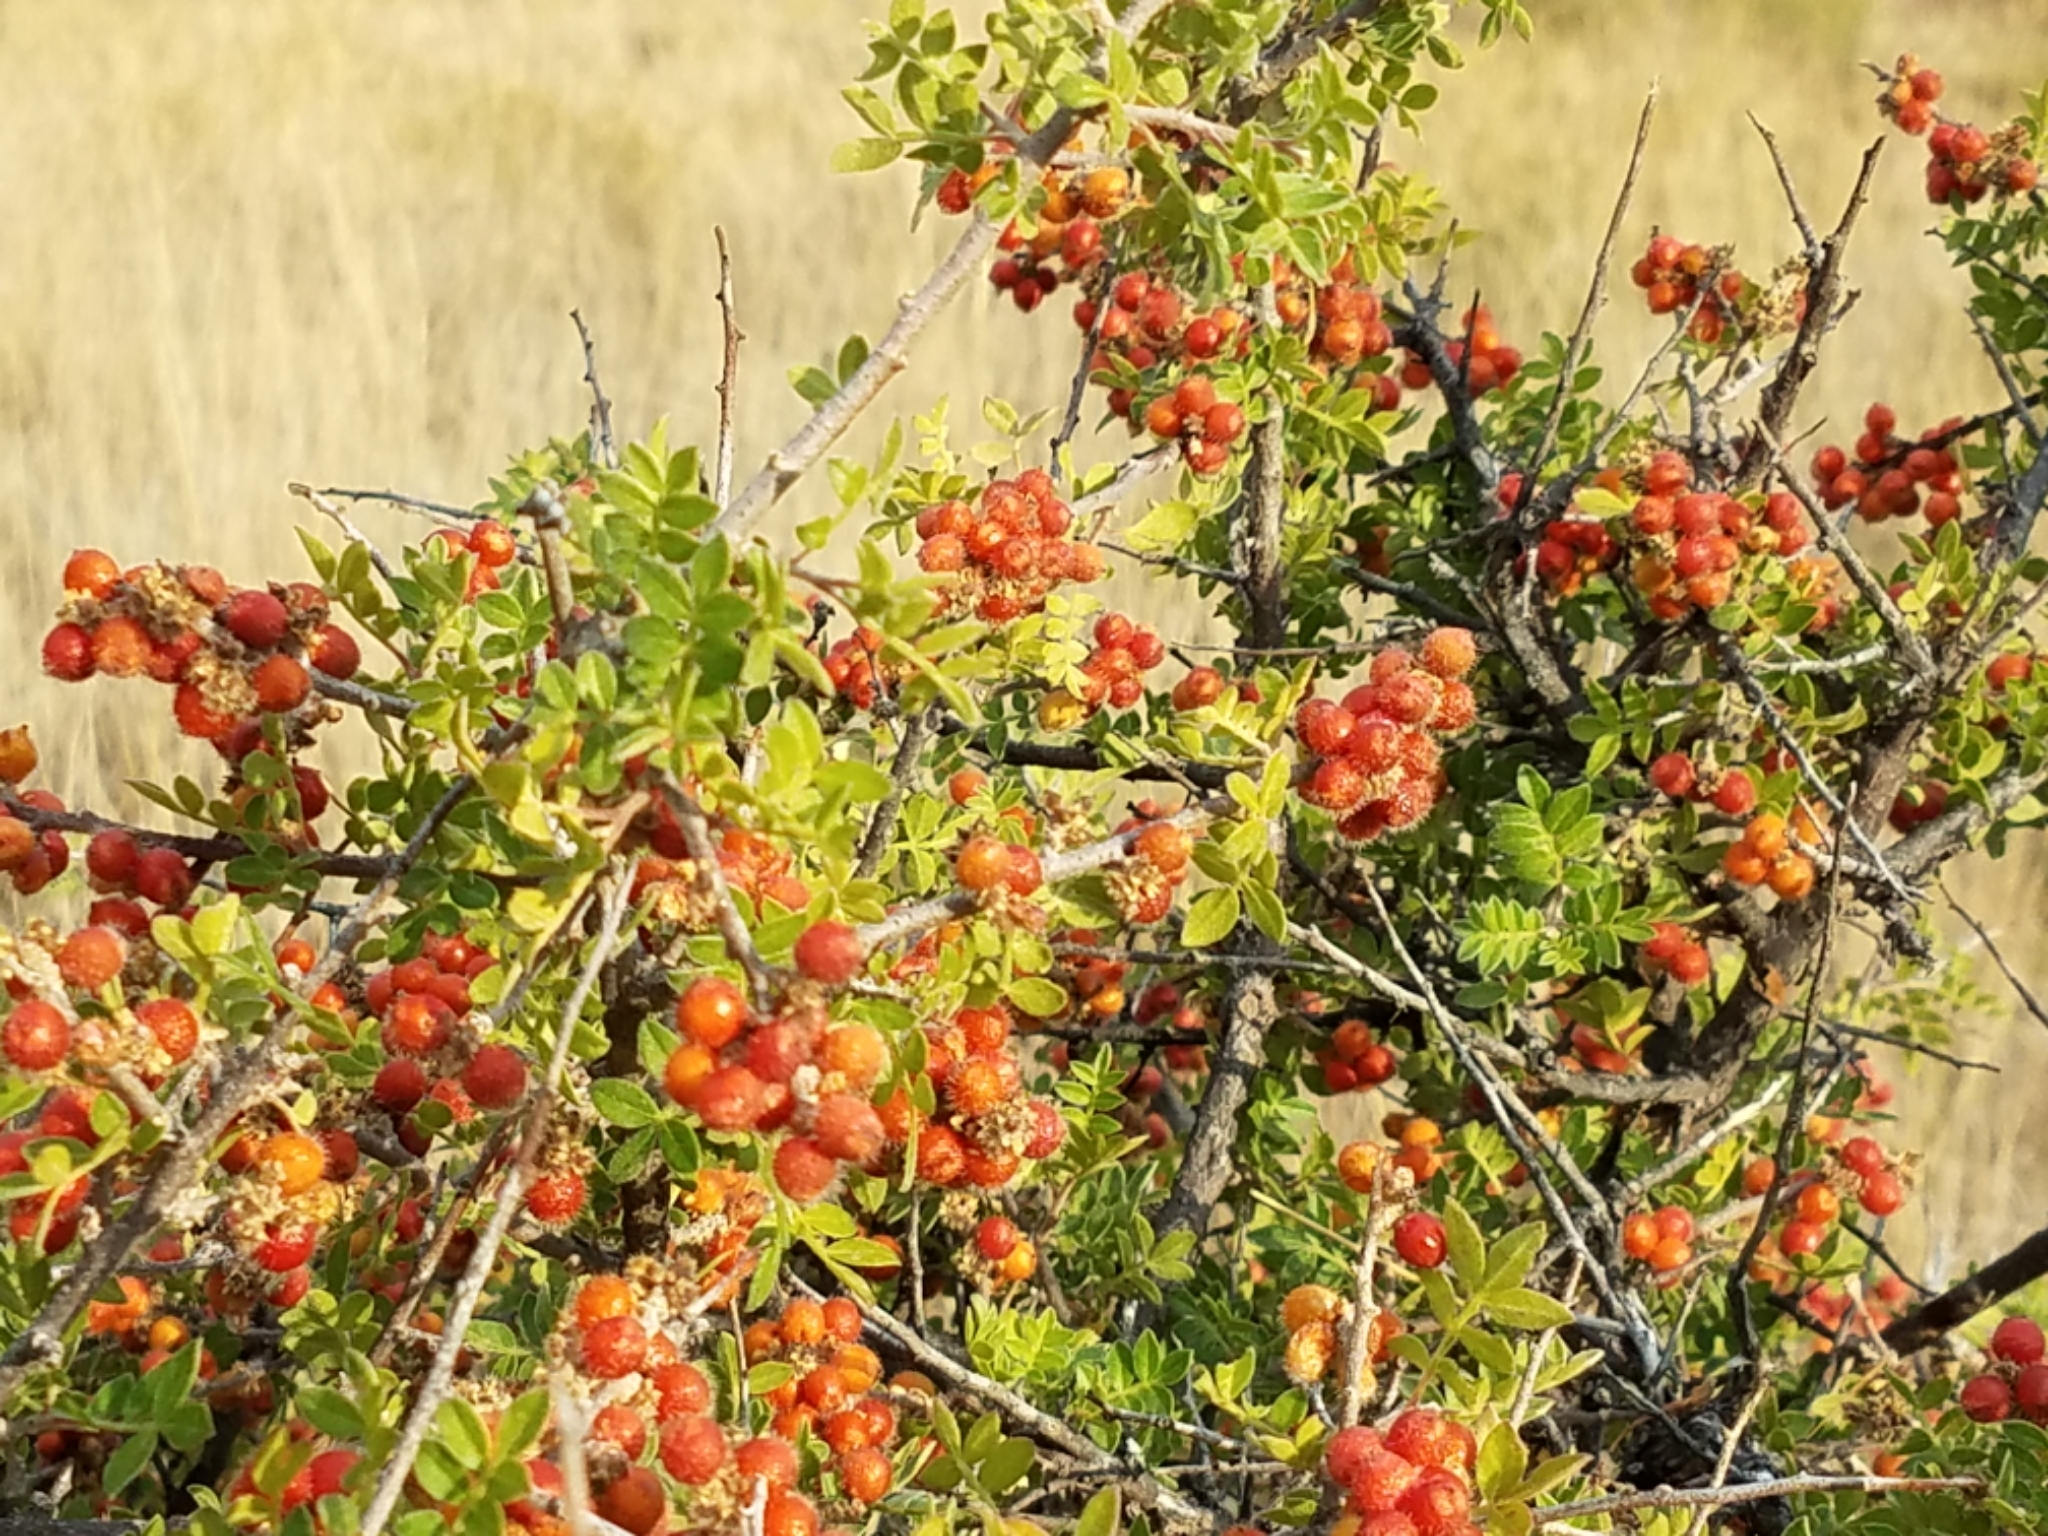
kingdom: Plantae
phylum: Tracheophyta
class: Magnoliopsida
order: Sapindales
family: Anacardiaceae
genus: Rhus
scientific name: Rhus microphylla
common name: Desert sumac
